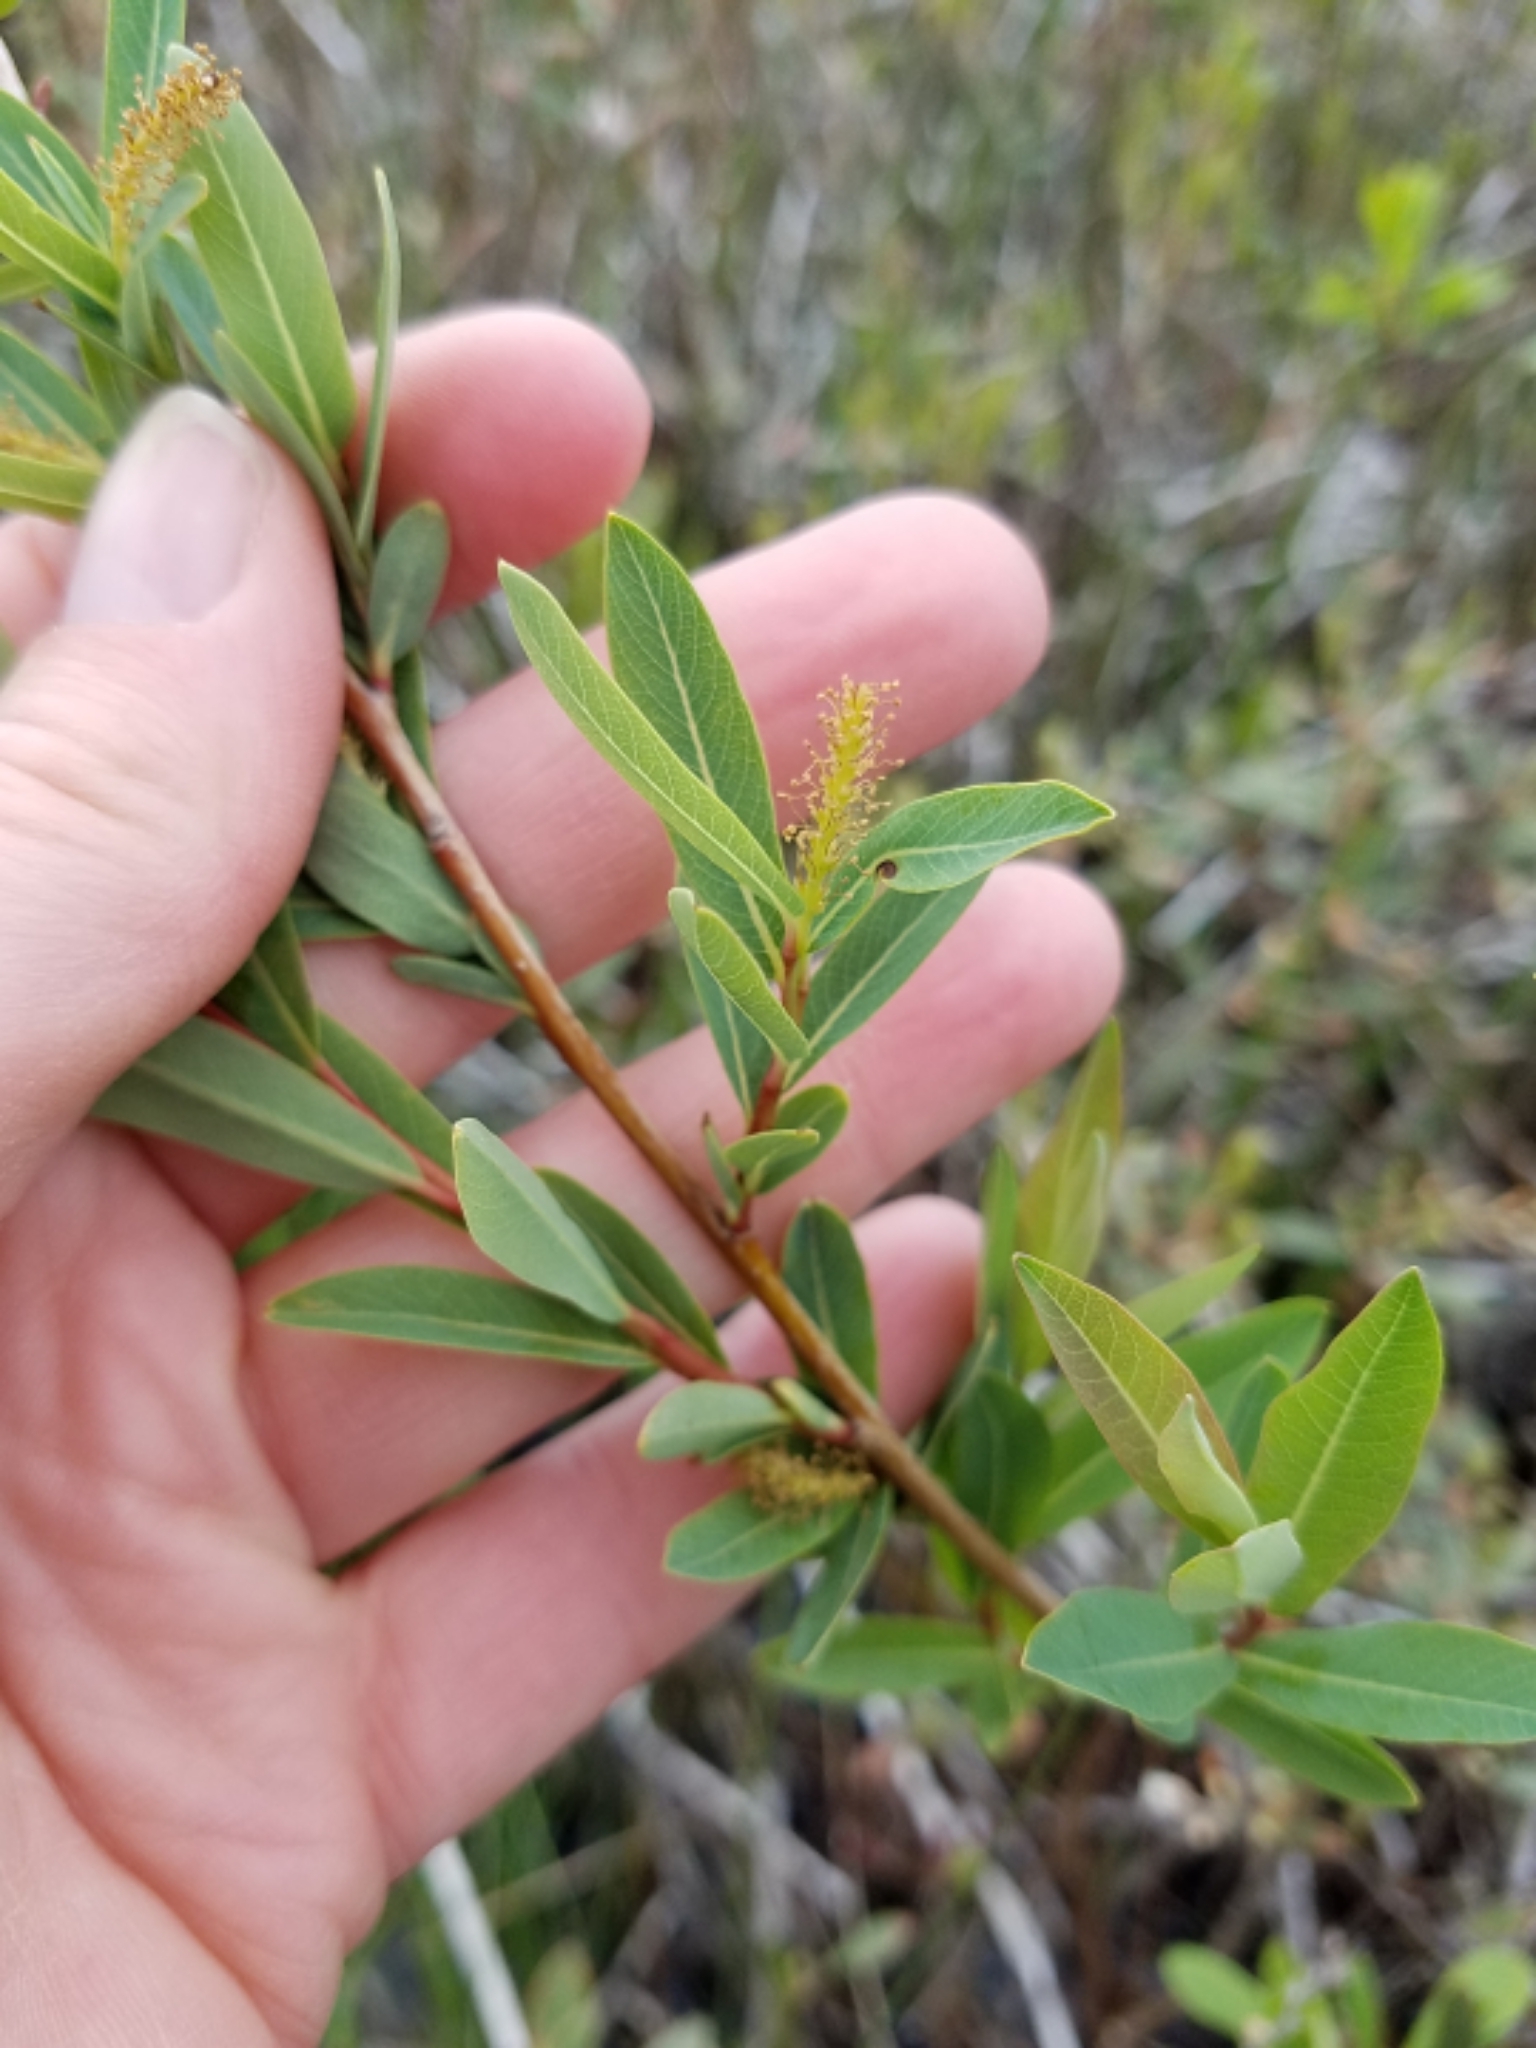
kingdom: Plantae
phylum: Tracheophyta
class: Magnoliopsida
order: Malpighiales
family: Salicaceae
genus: Salix
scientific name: Salix pedicellaris
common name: Bog willow
